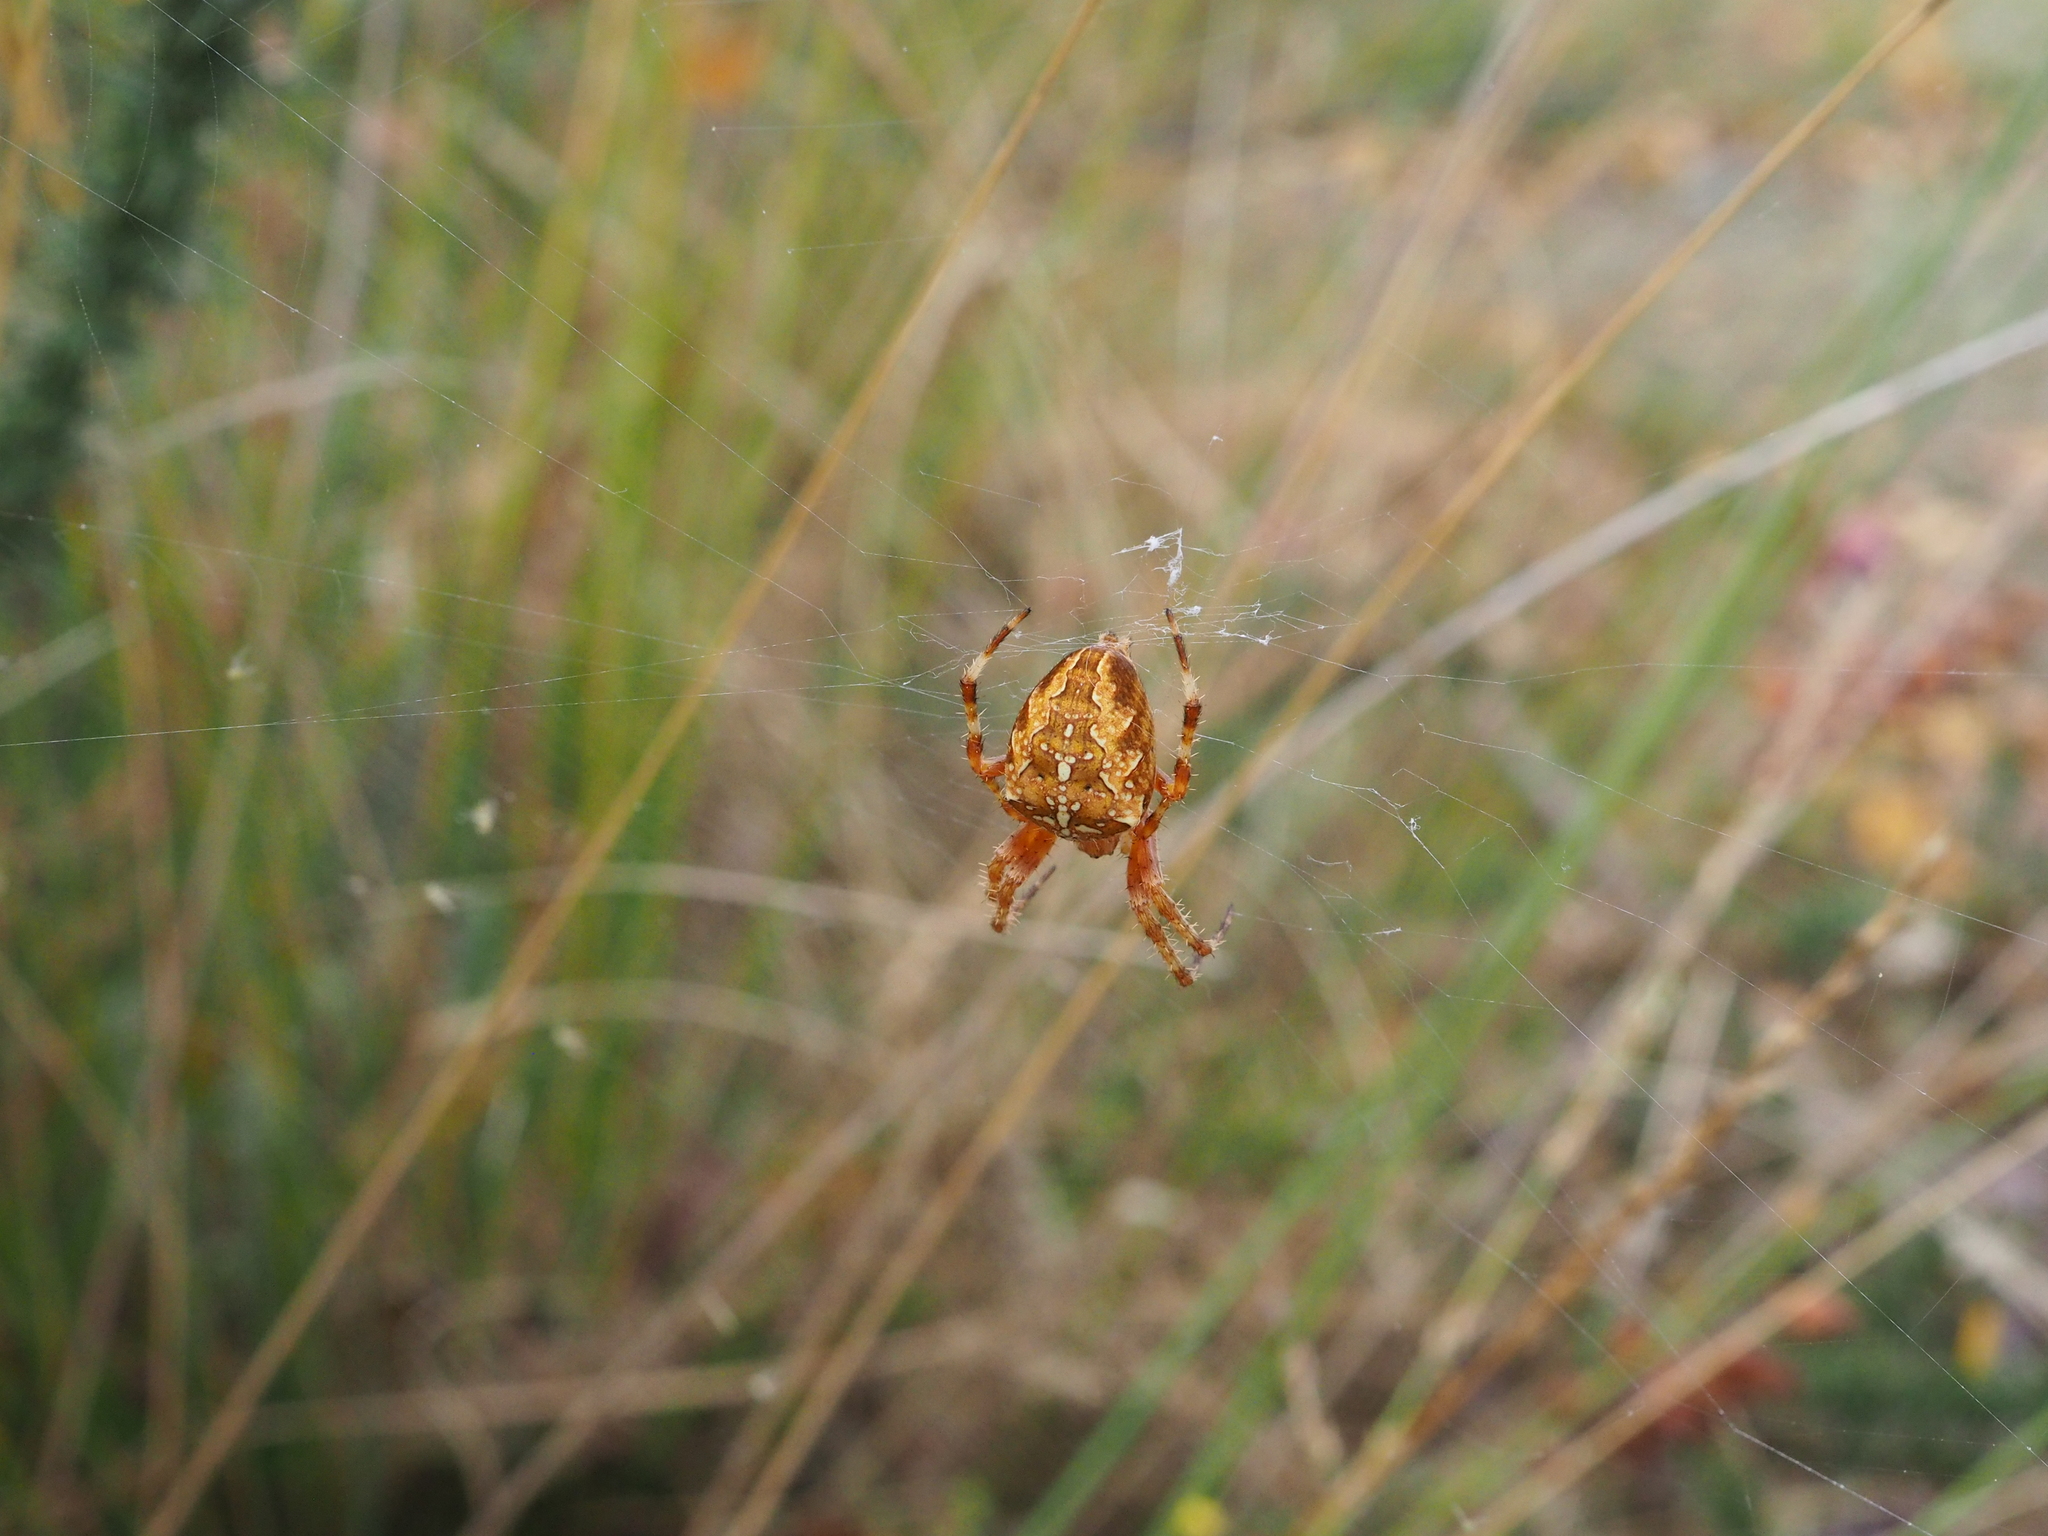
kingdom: Animalia
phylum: Arthropoda
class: Arachnida
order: Araneae
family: Araneidae
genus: Araneus
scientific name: Araneus diadematus
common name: Cross orbweaver
